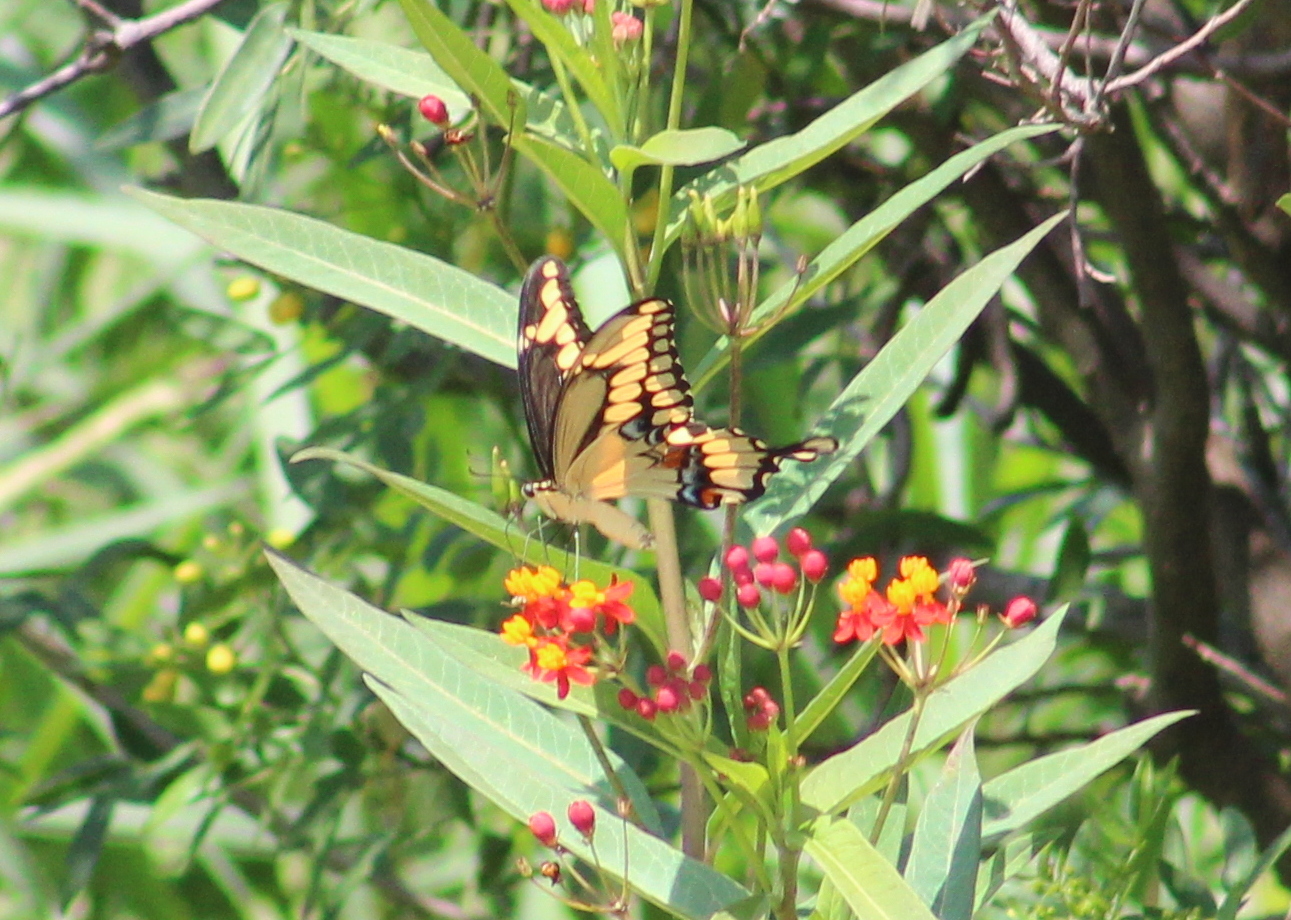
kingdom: Animalia
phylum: Arthropoda
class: Insecta
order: Lepidoptera
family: Papilionidae
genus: Papilio
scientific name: Papilio cresphontes
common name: Giant swallowtail
